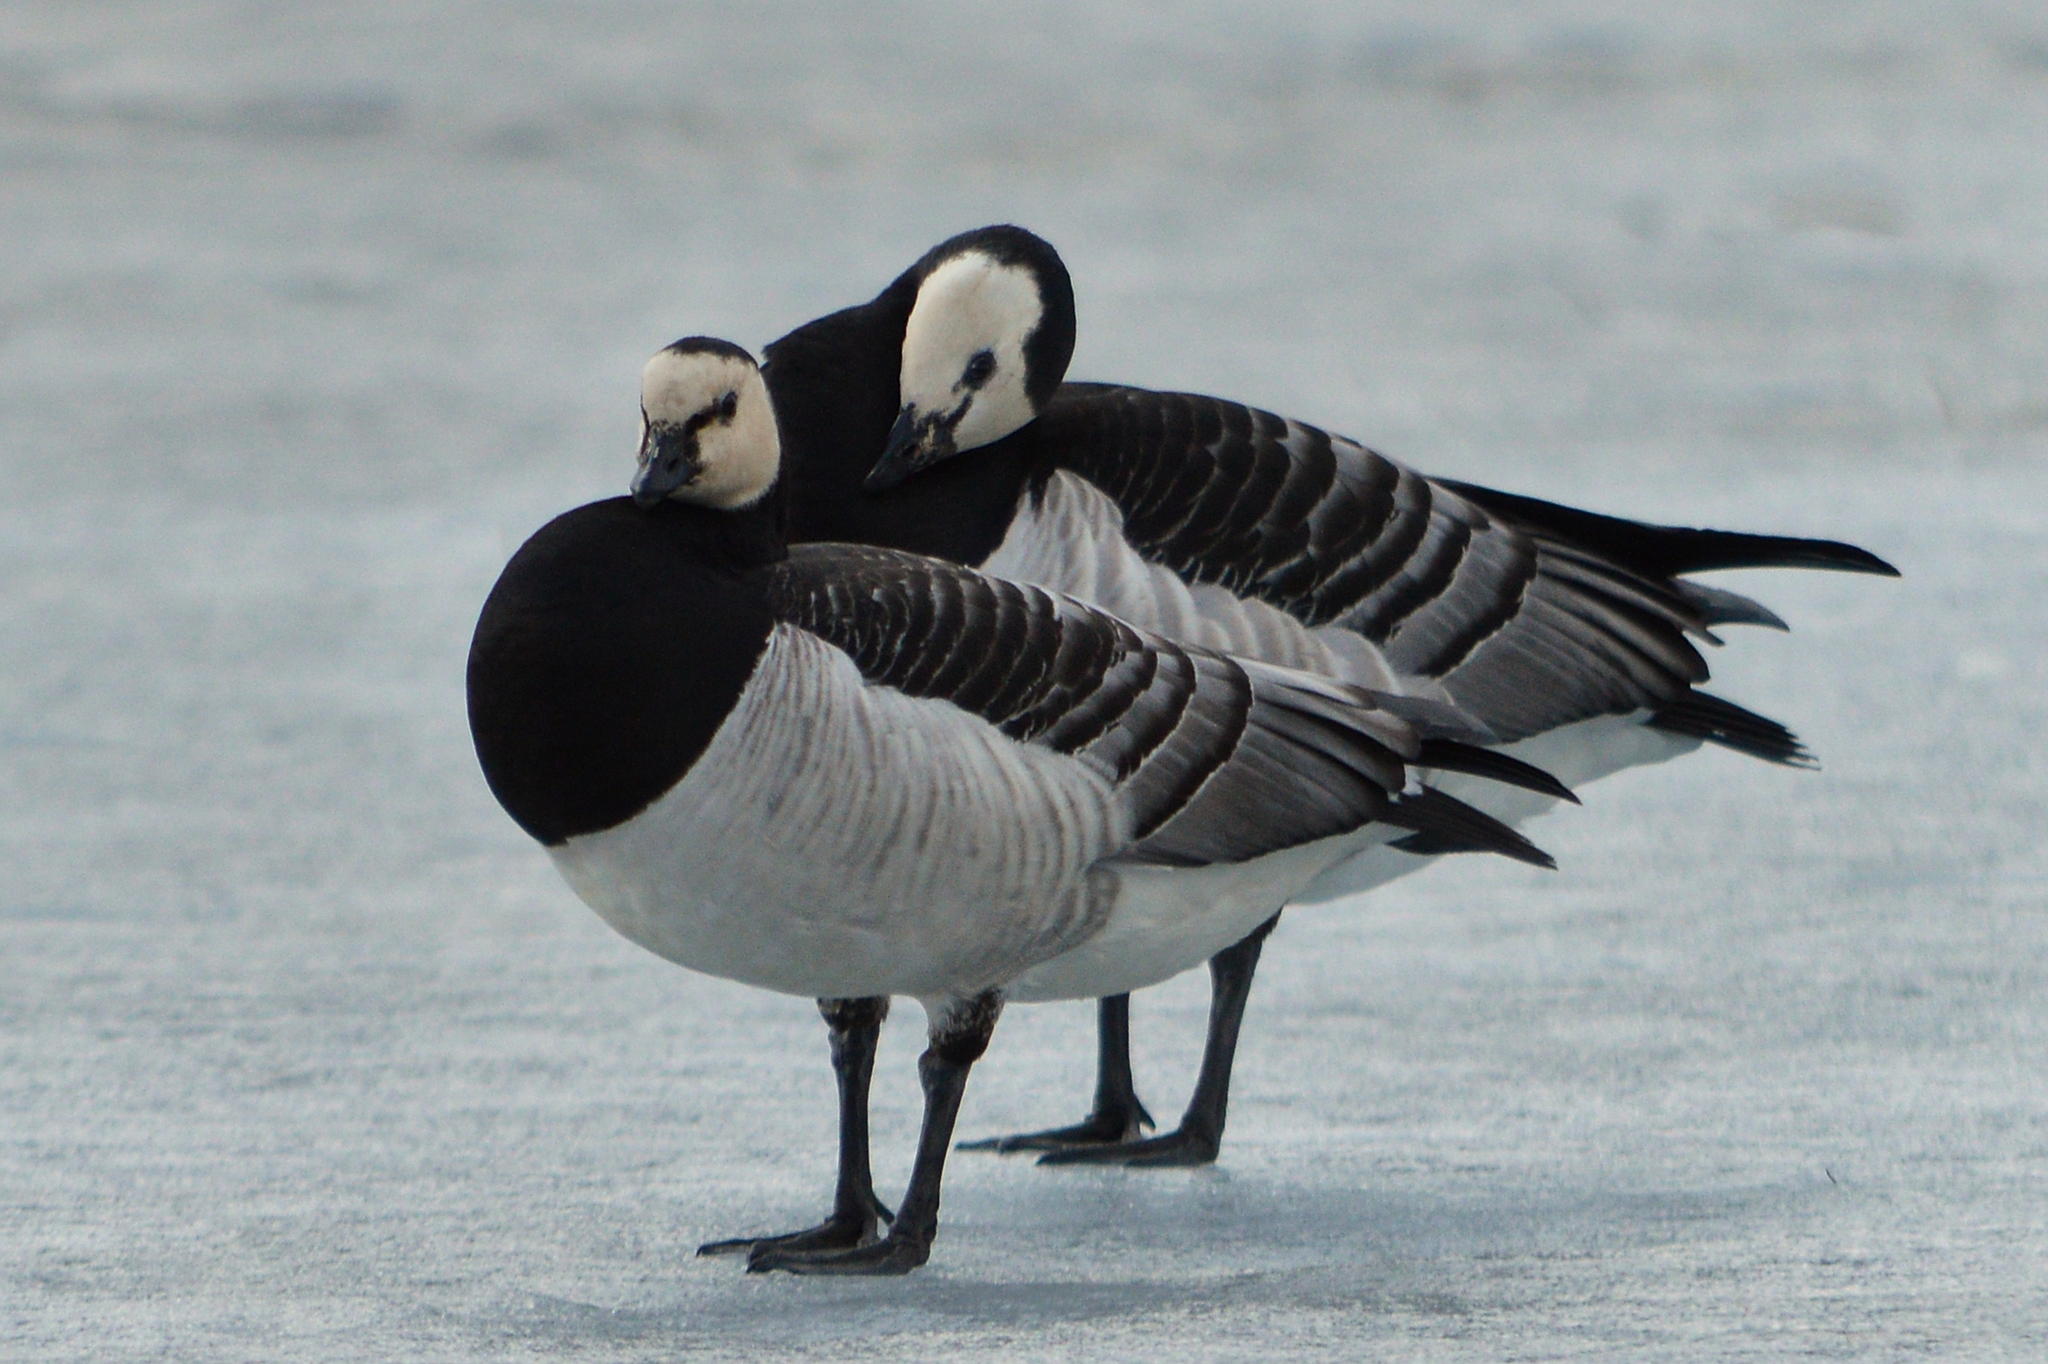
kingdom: Animalia
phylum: Chordata
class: Aves
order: Anseriformes
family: Anatidae
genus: Branta
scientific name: Branta leucopsis
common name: Barnacle goose
